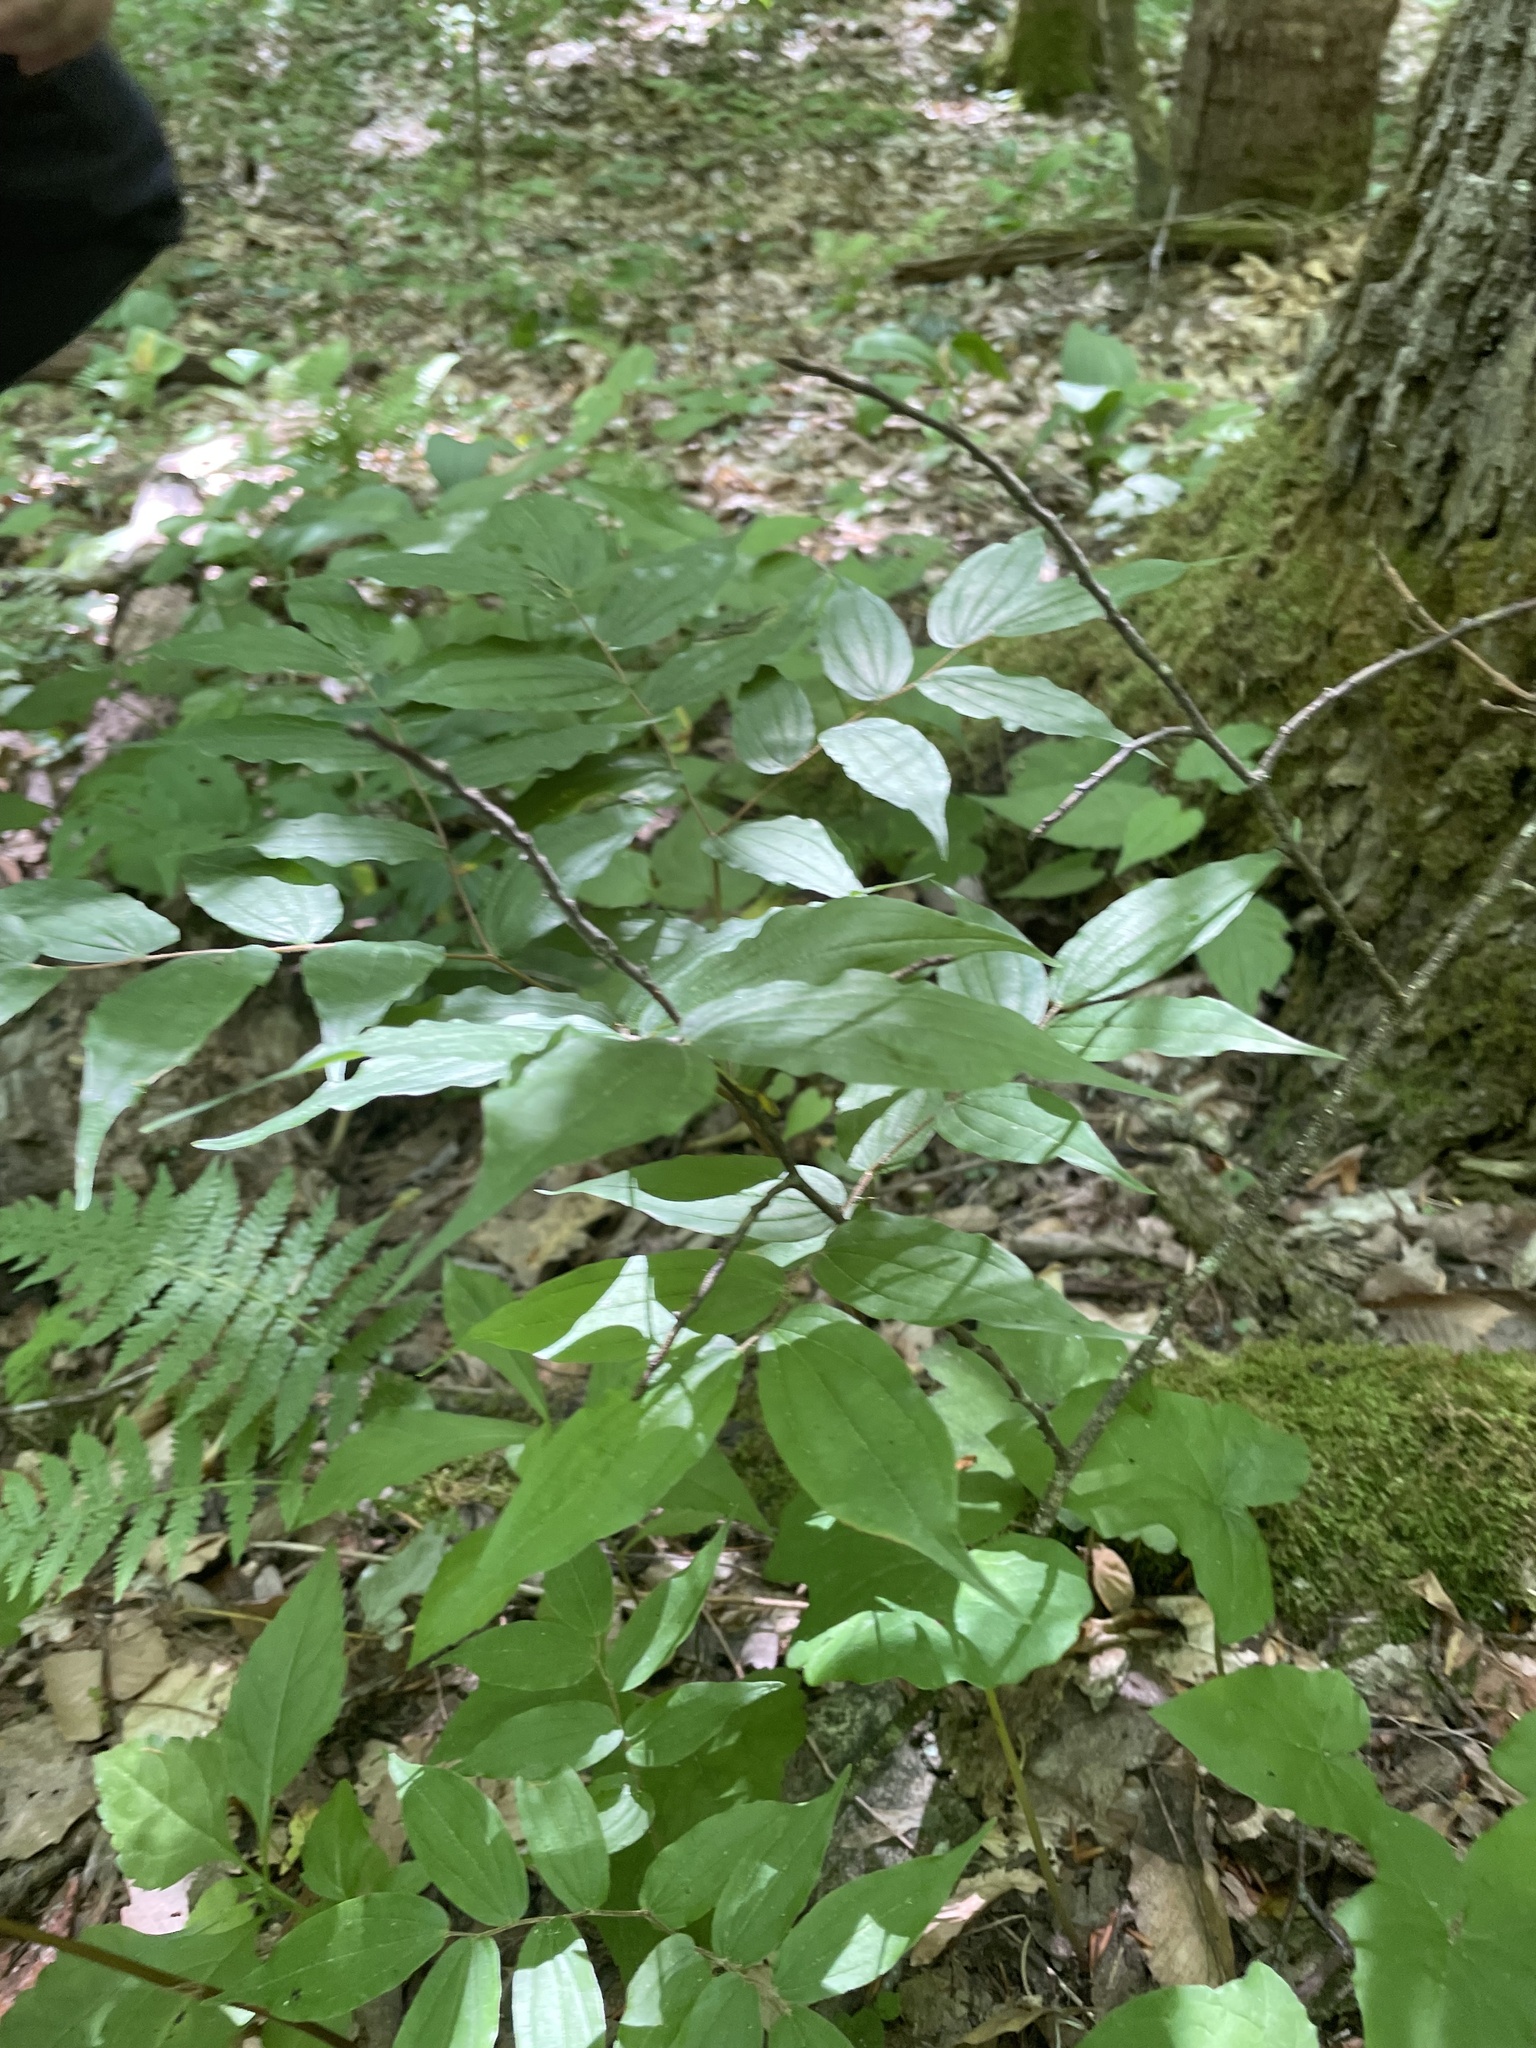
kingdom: Plantae
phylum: Tracheophyta
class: Liliopsida
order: Liliales
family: Liliaceae
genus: Prosartes
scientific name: Prosartes lanuginosa
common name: Hairy mandarin
